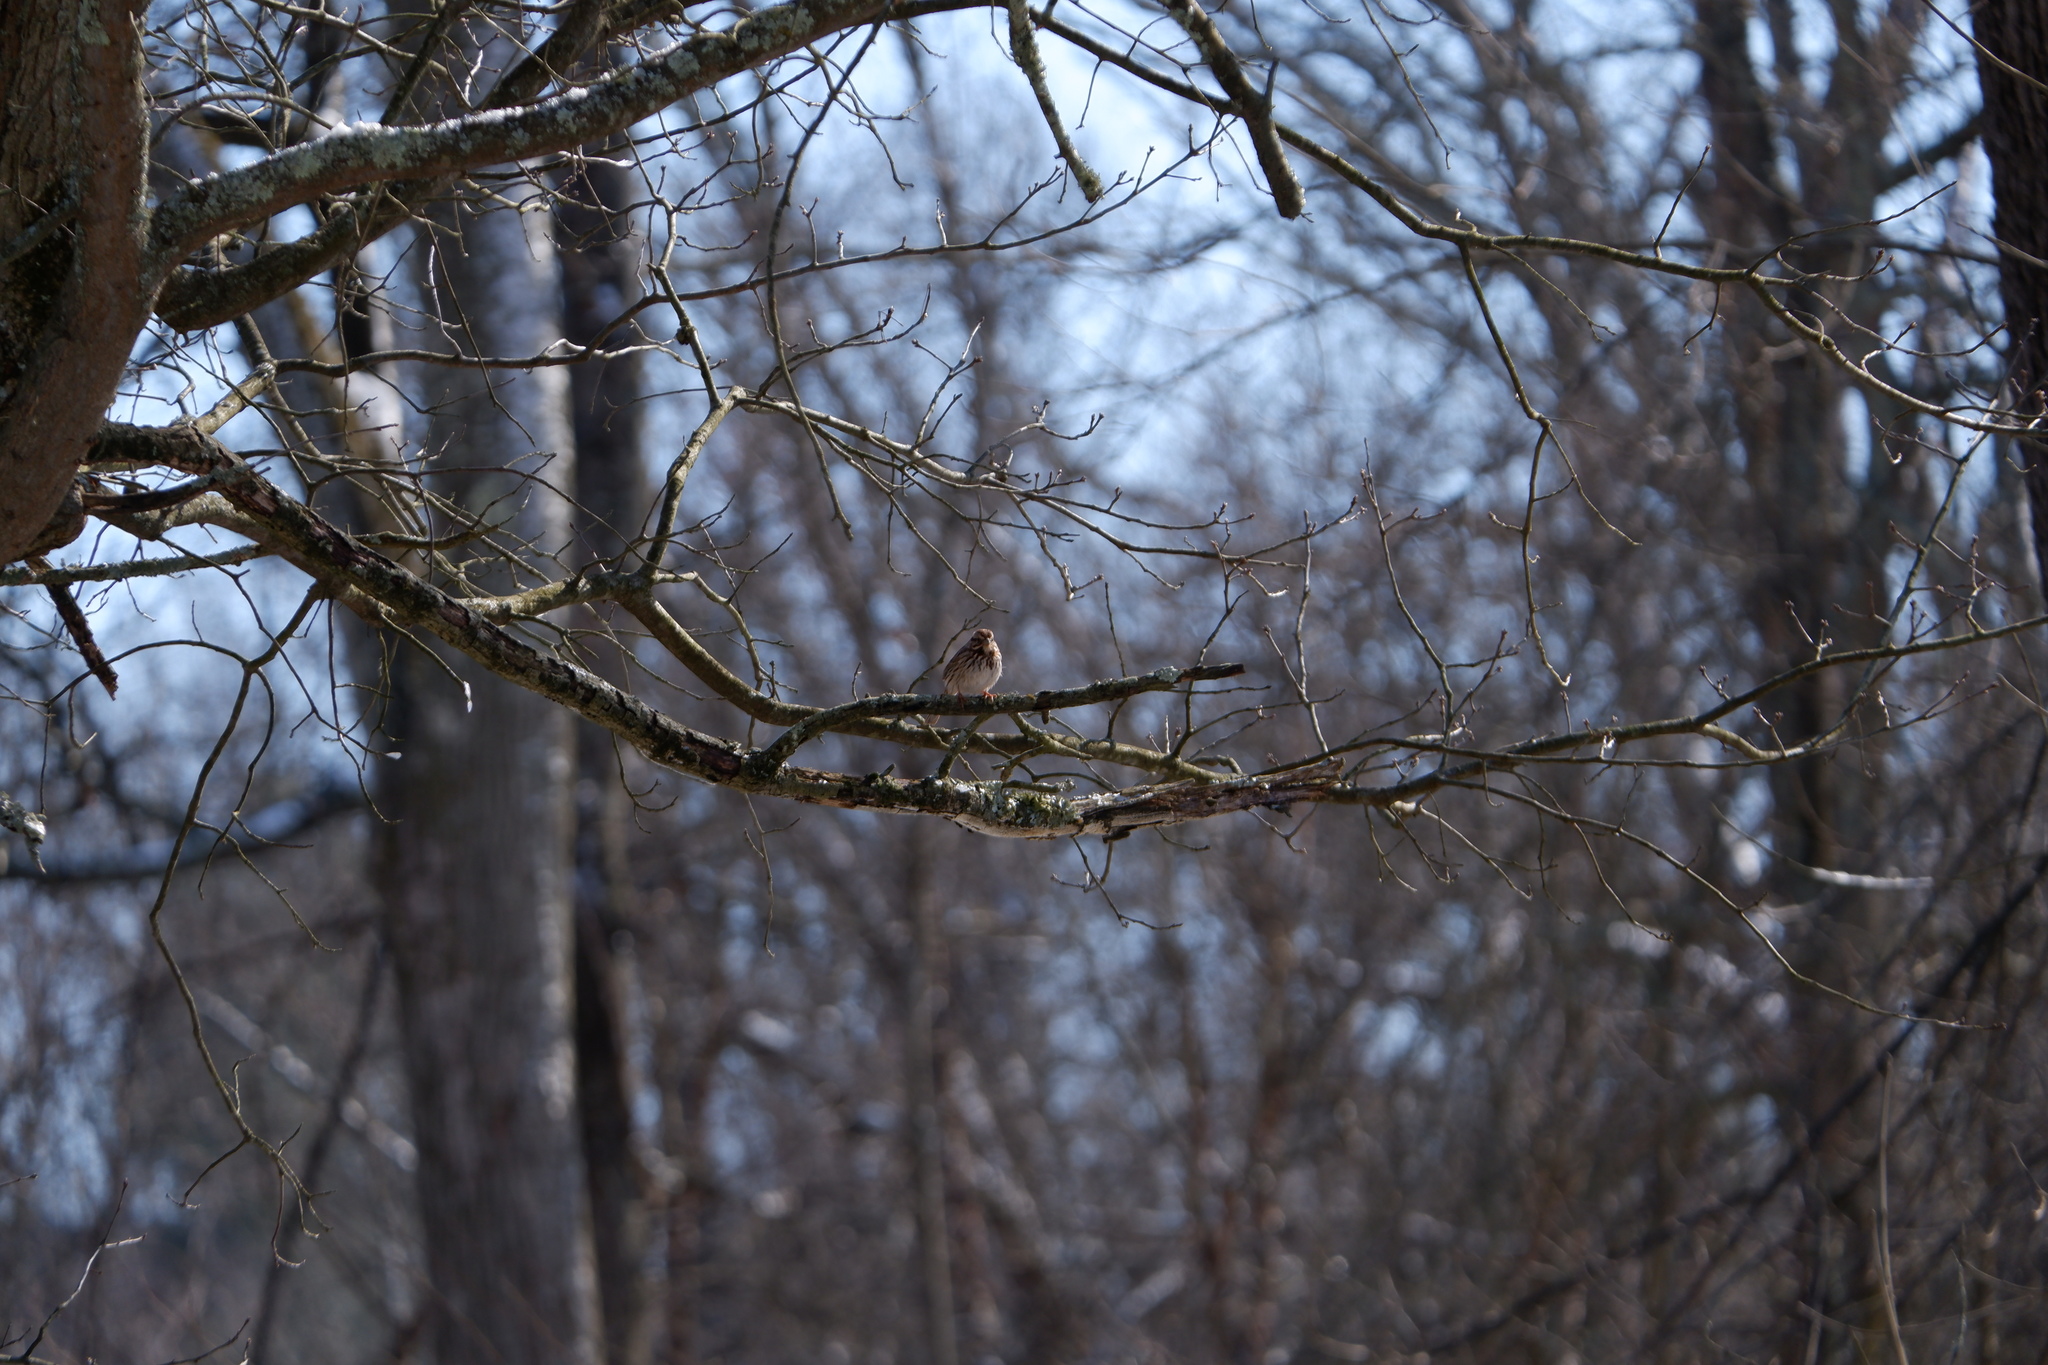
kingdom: Animalia
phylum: Chordata
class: Aves
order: Passeriformes
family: Passerellidae
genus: Melospiza
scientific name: Melospiza melodia
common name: Song sparrow
